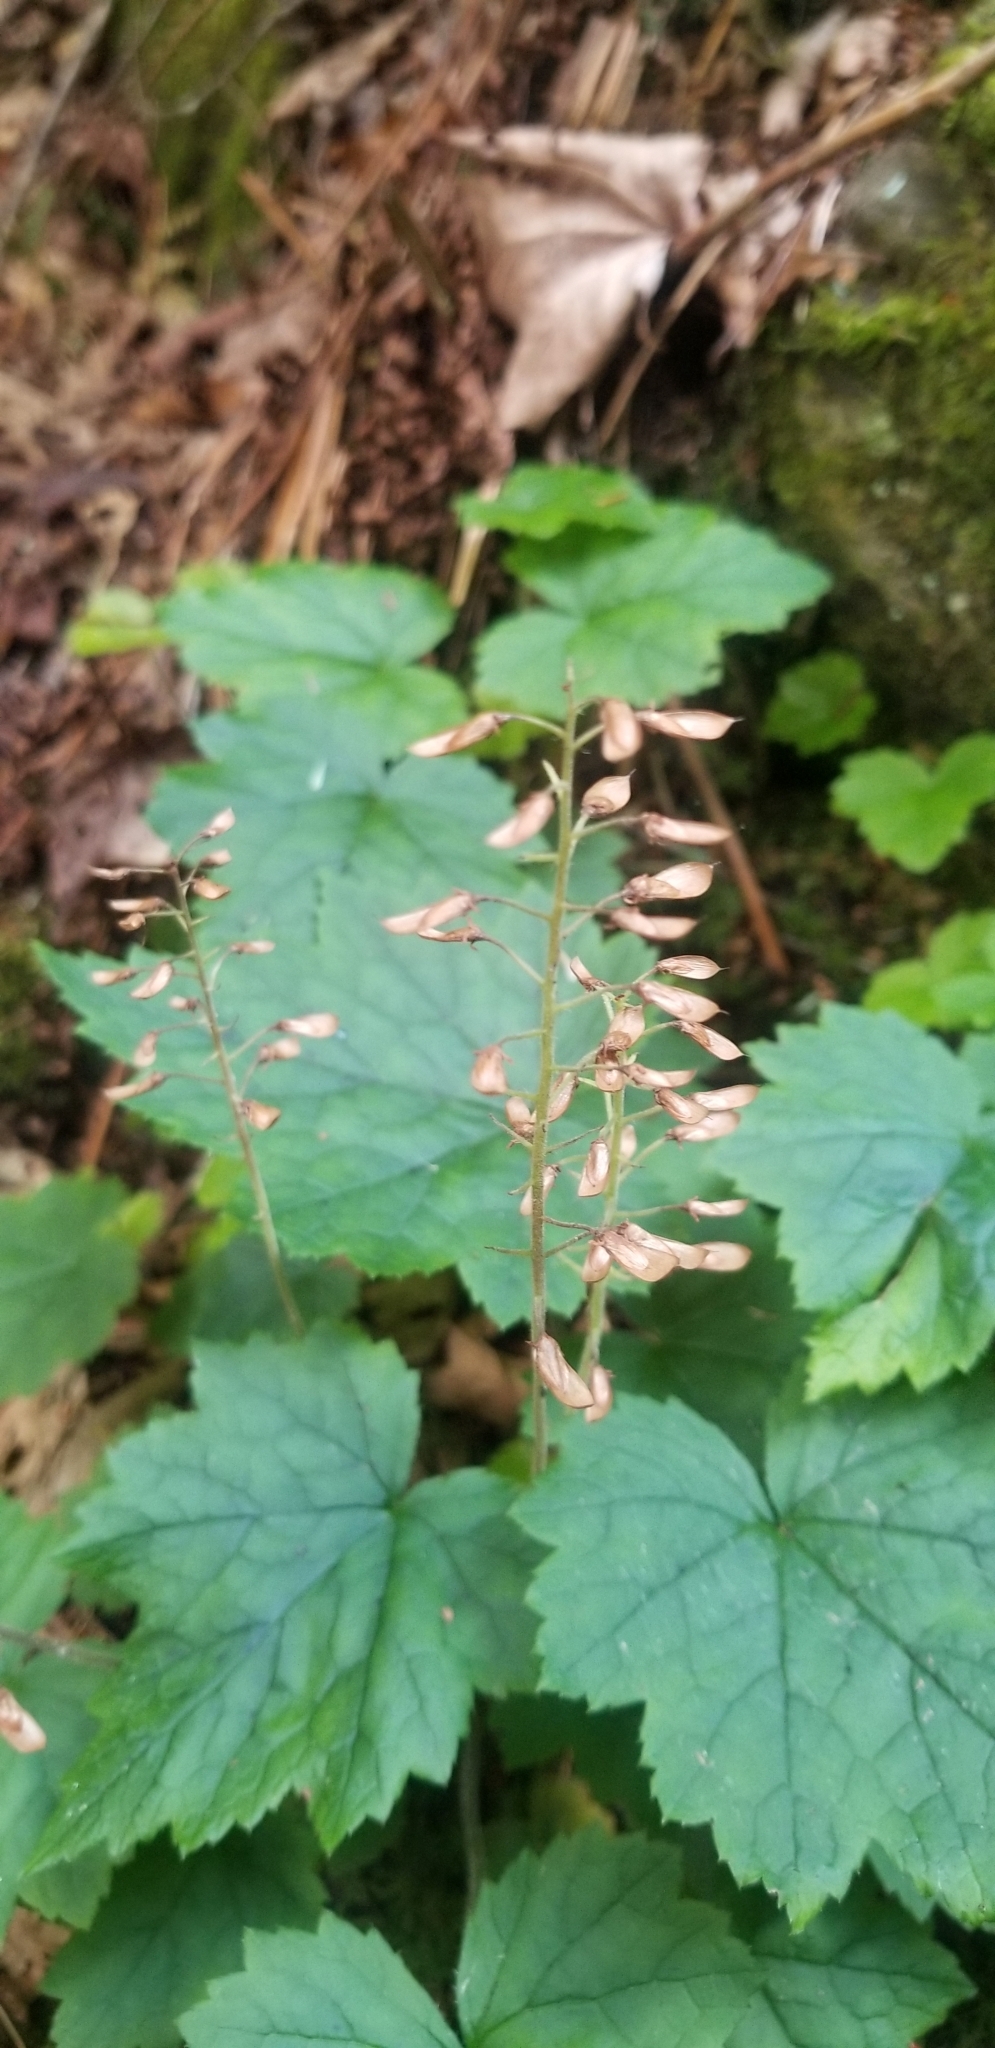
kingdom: Plantae
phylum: Tracheophyta
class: Magnoliopsida
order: Saxifragales
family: Saxifragaceae
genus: Tiarella
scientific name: Tiarella stolonifera
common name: Stoloniferous foamflower
